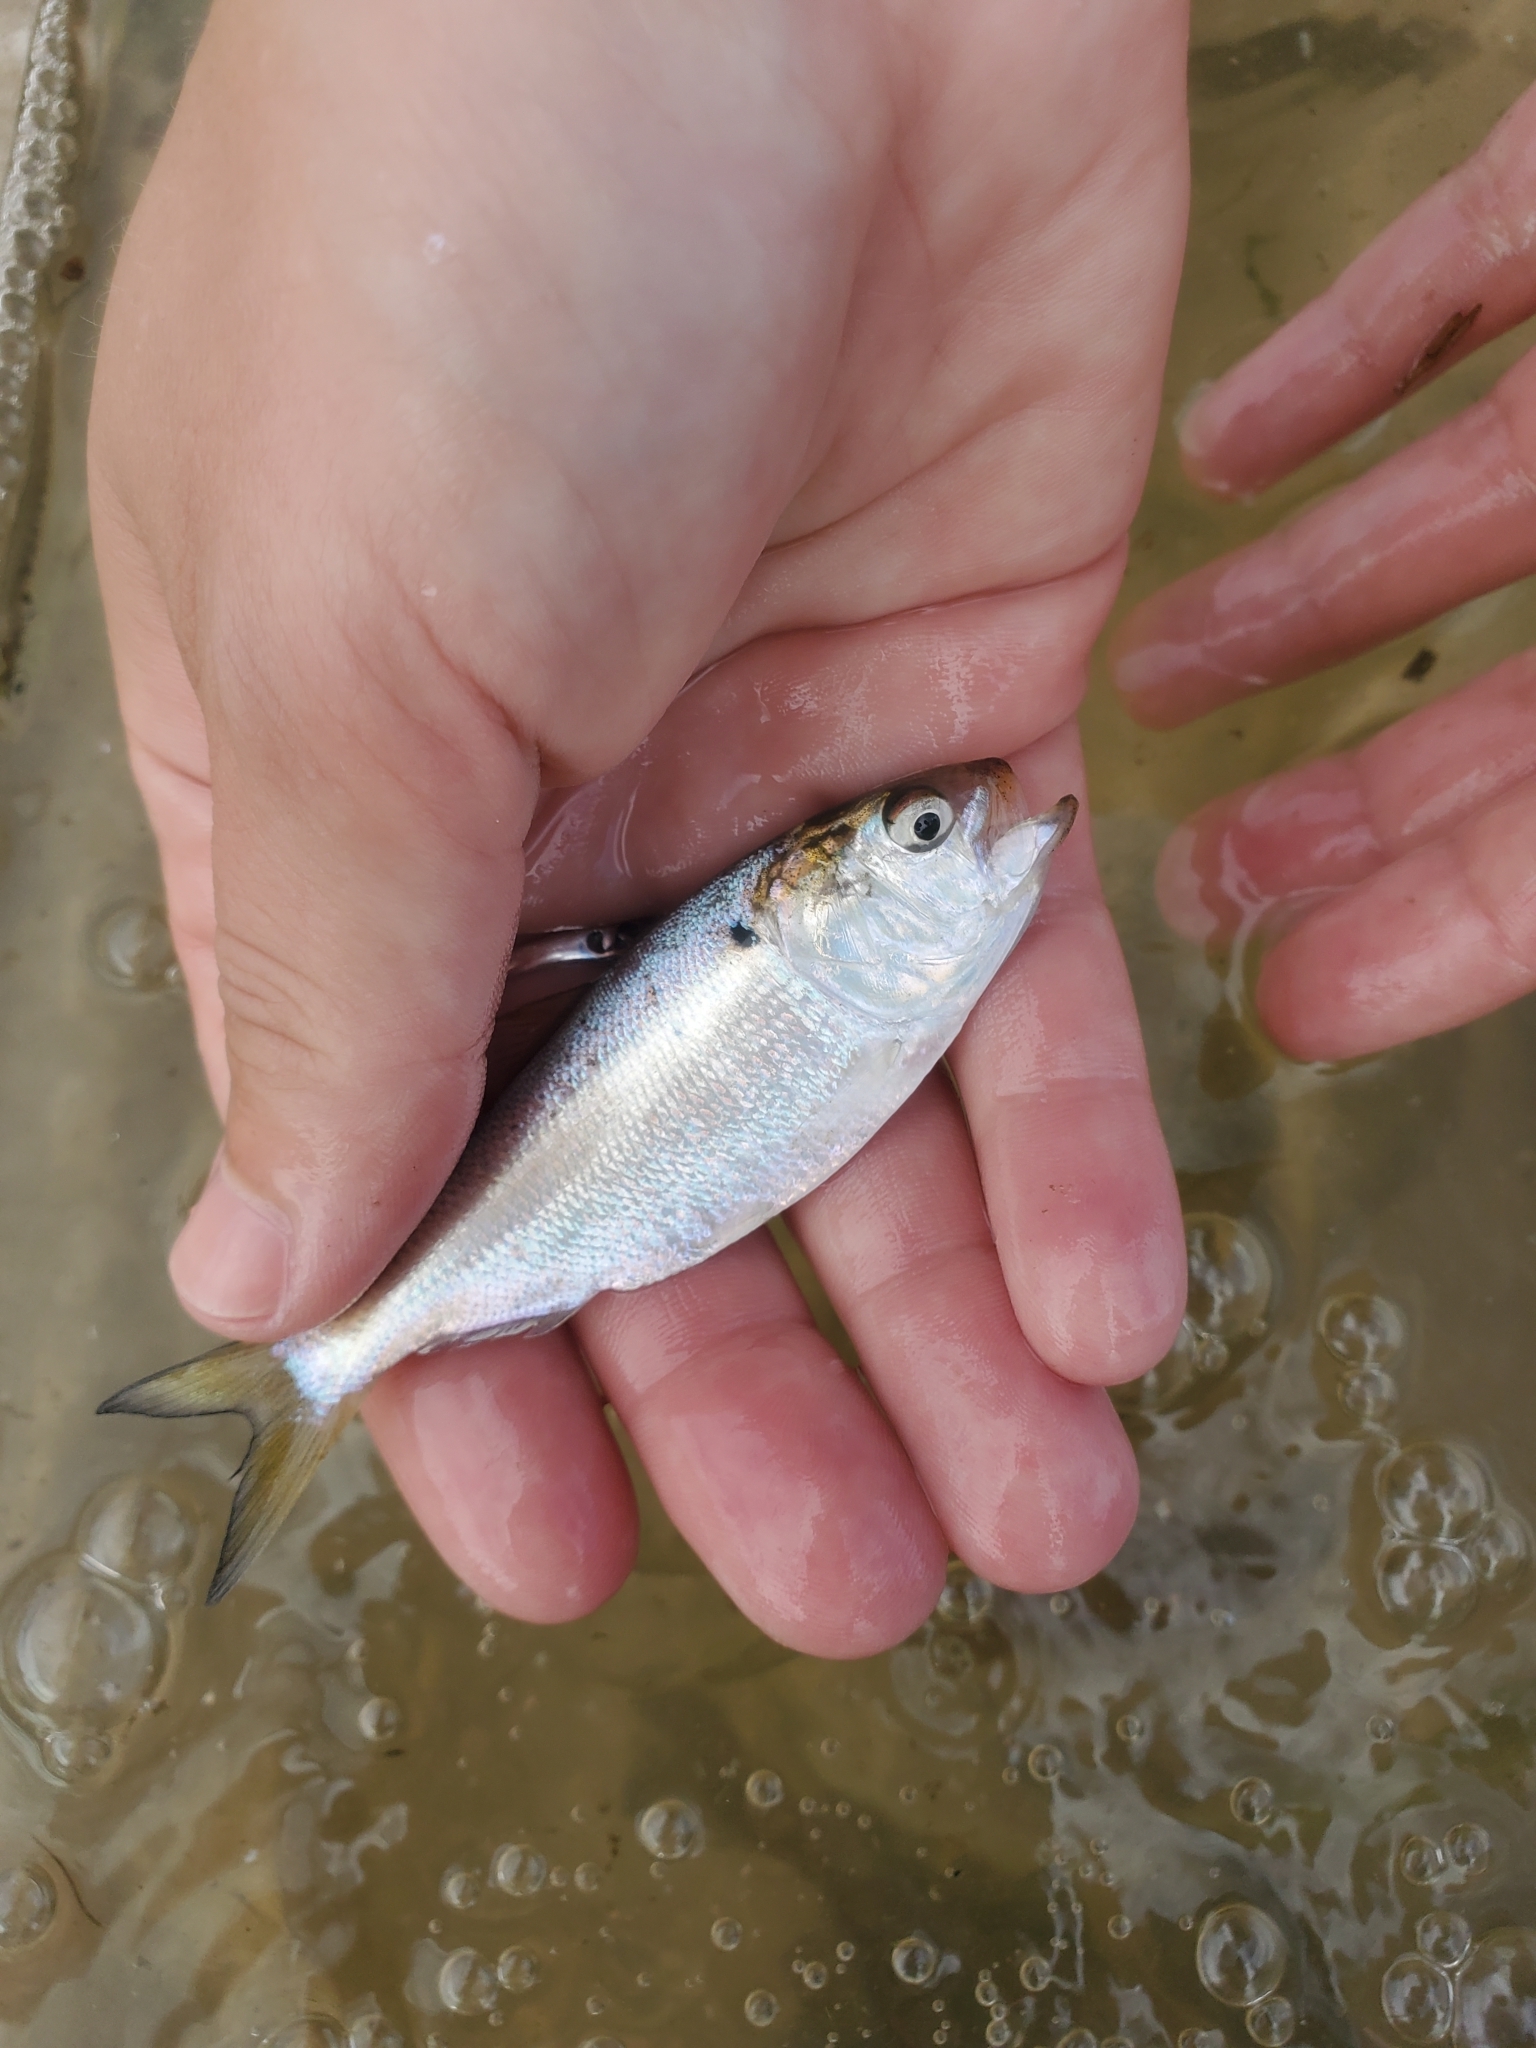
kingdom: Animalia
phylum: Chordata
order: Clupeiformes
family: Clupeidae
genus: Brevoortia
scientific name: Brevoortia tyrannus
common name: Atlantic menhaden
